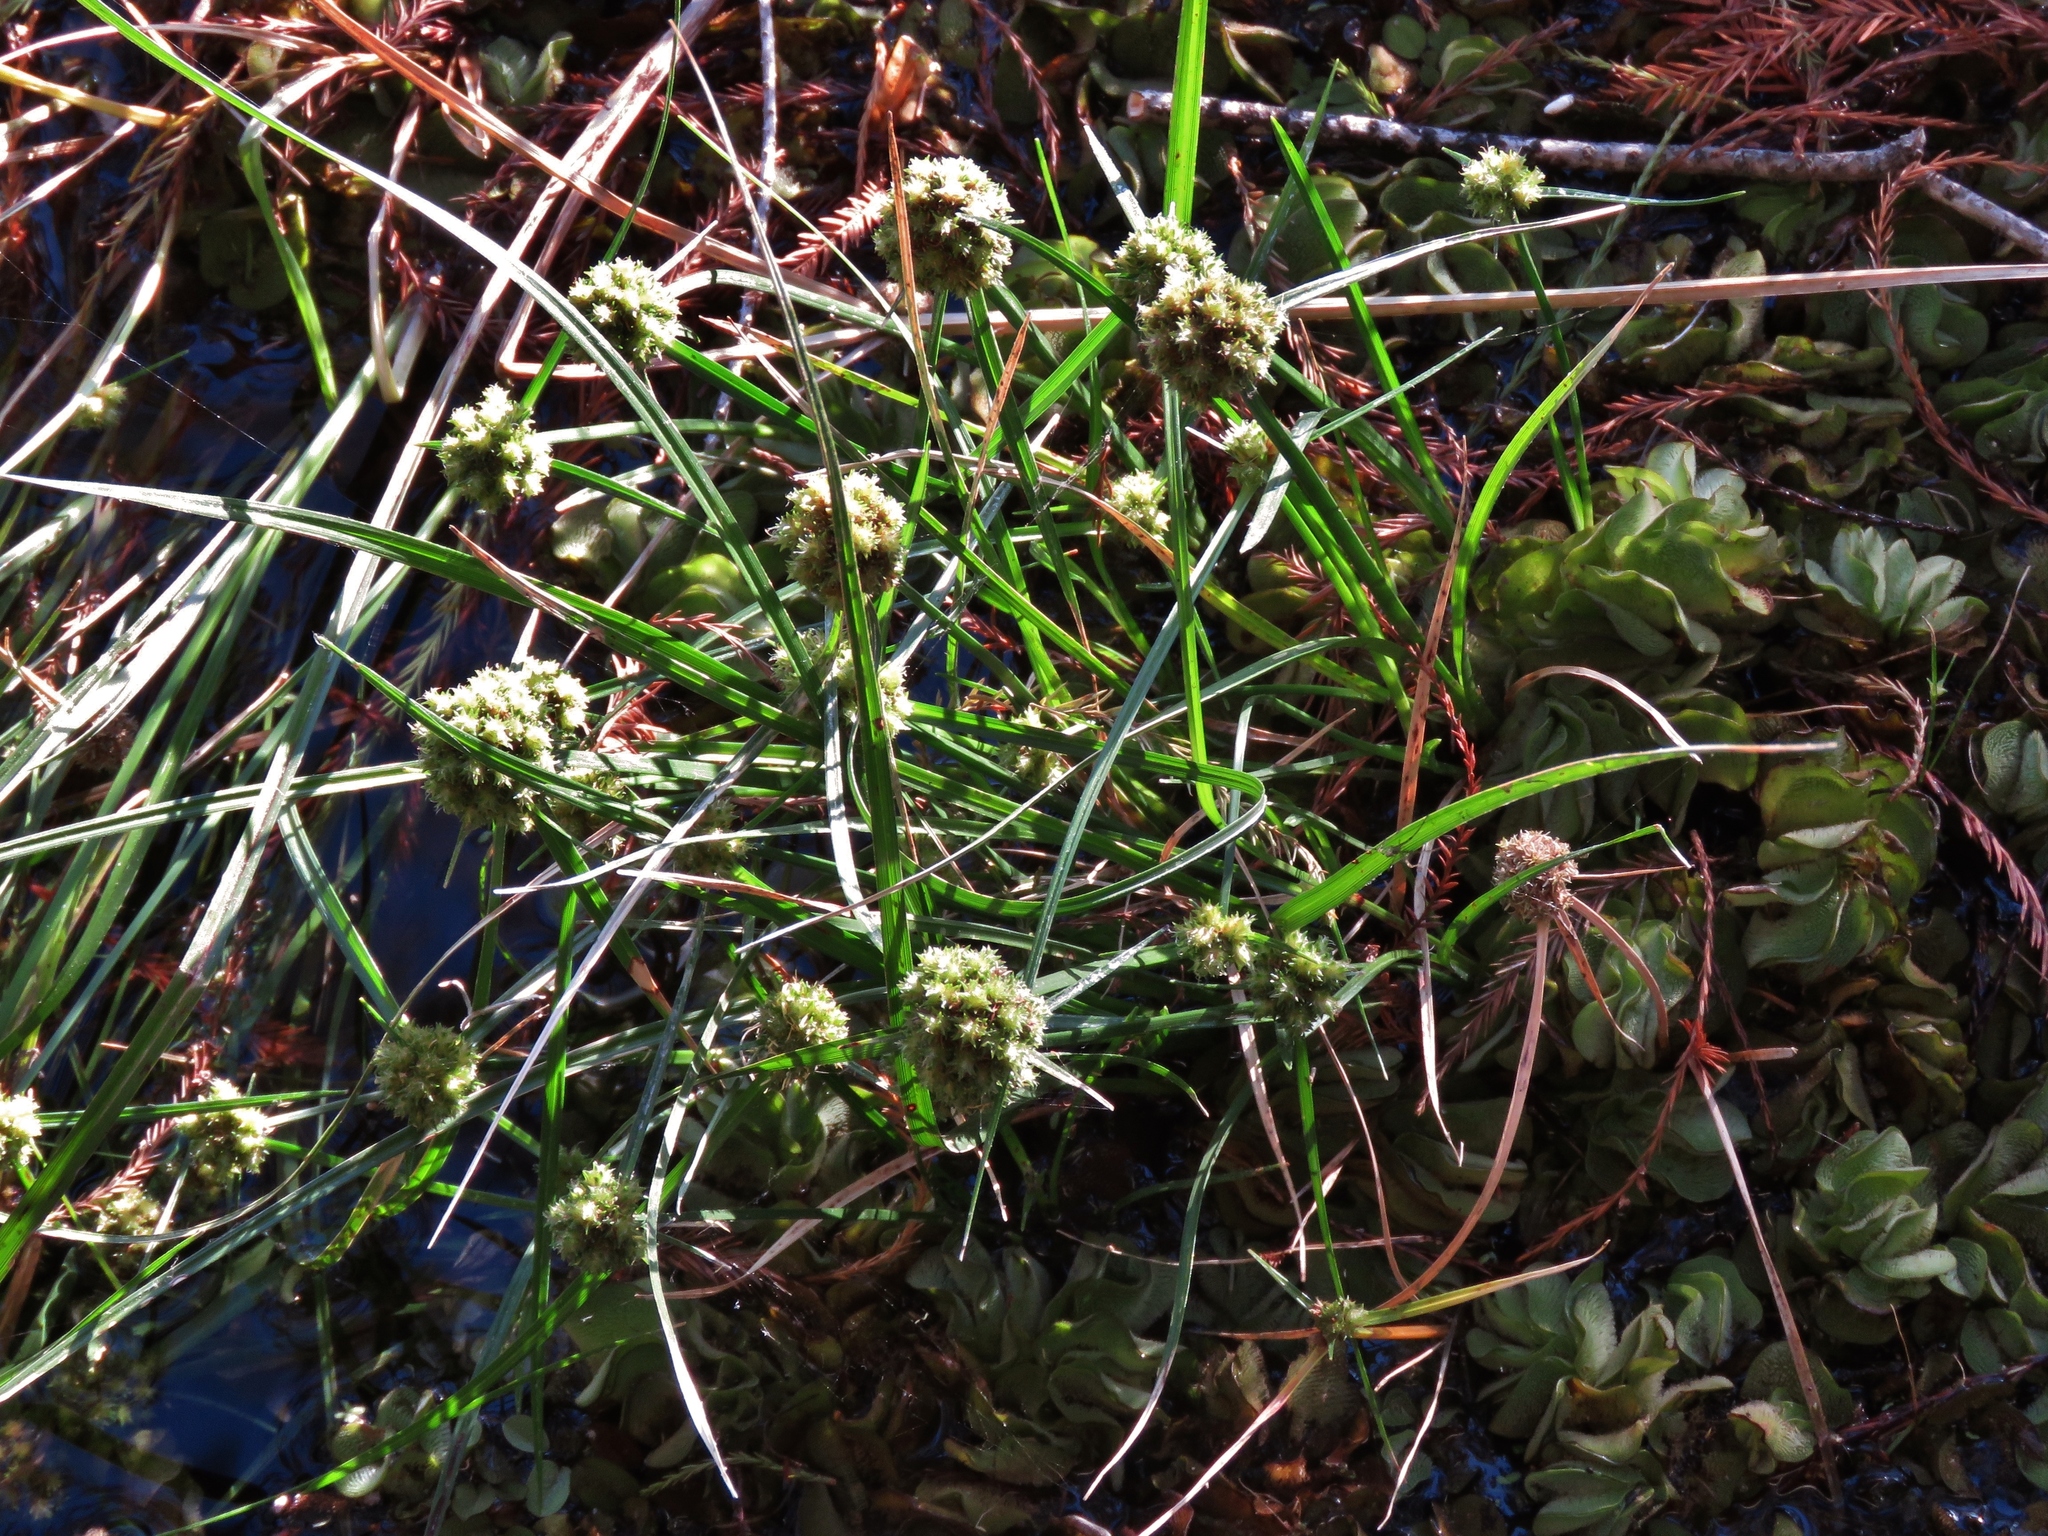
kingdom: Plantae
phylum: Tracheophyta
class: Liliopsida
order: Poales
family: Cyperaceae
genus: Cyperus
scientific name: Cyperus blepharoleptos
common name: Cuban bulrush
